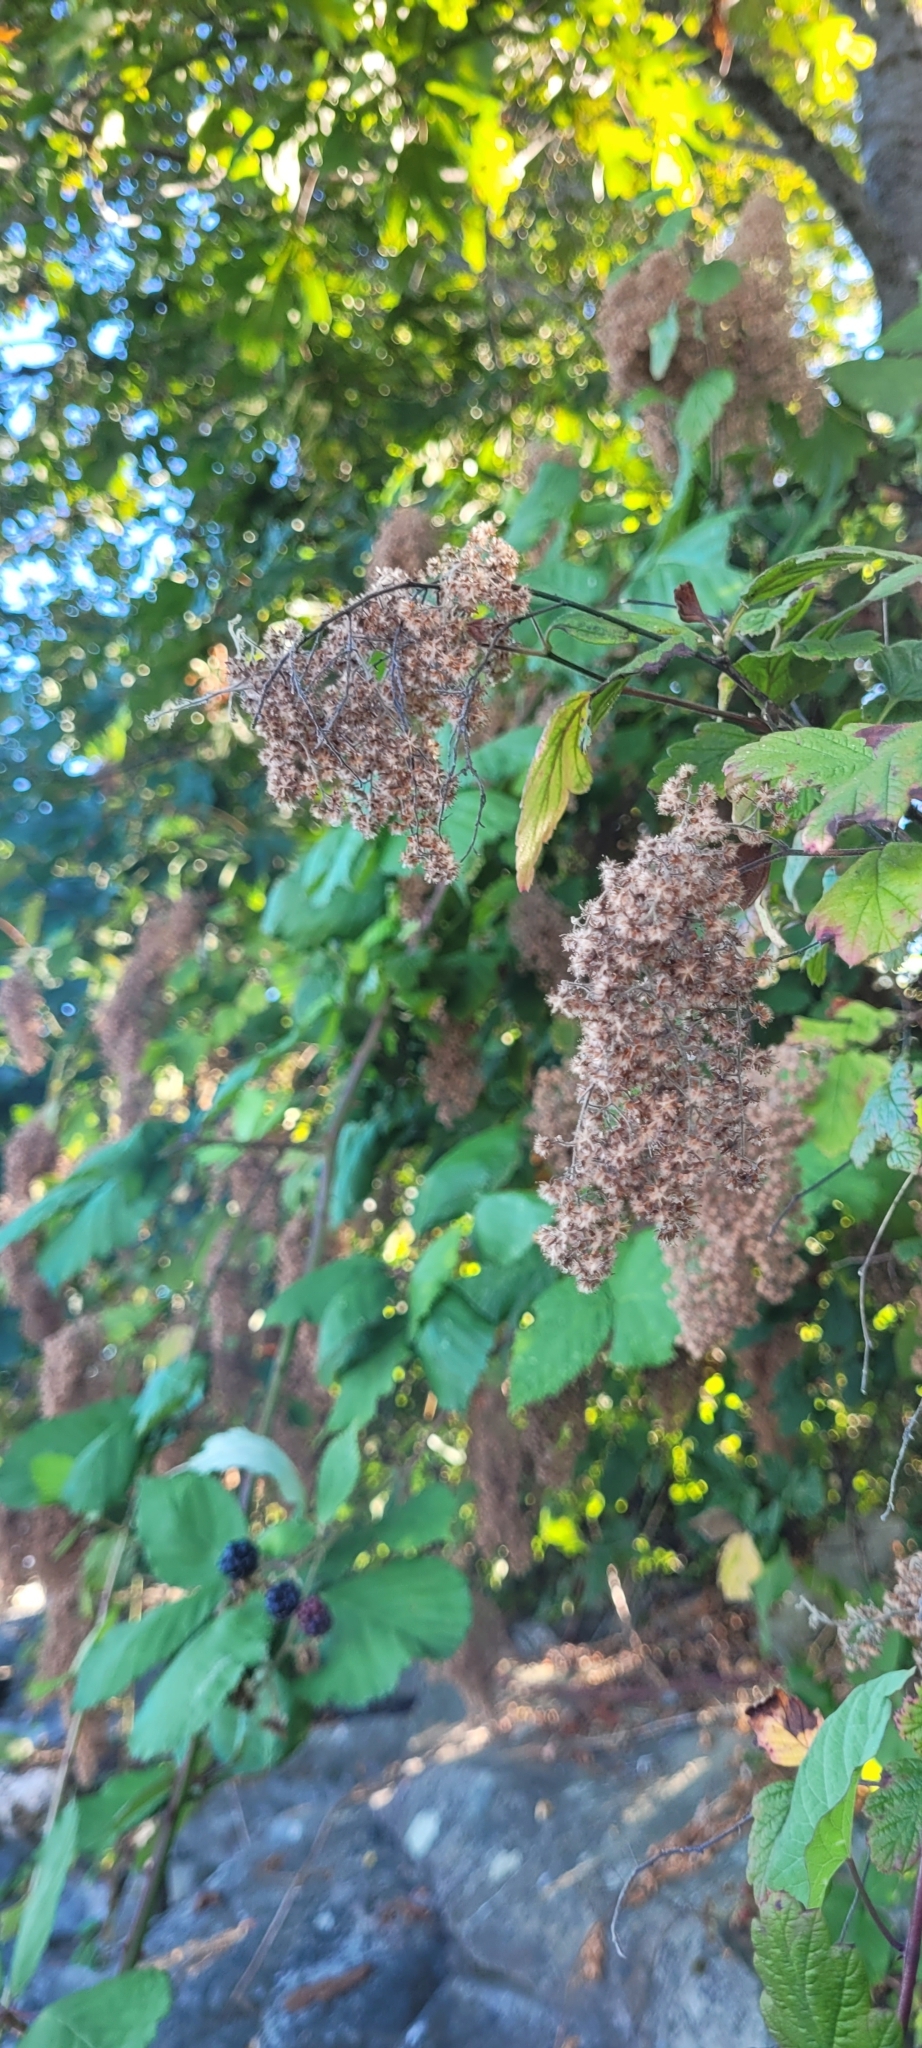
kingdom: Plantae
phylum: Tracheophyta
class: Magnoliopsida
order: Rosales
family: Rosaceae
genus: Holodiscus
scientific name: Holodiscus discolor
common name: Oceanspray
